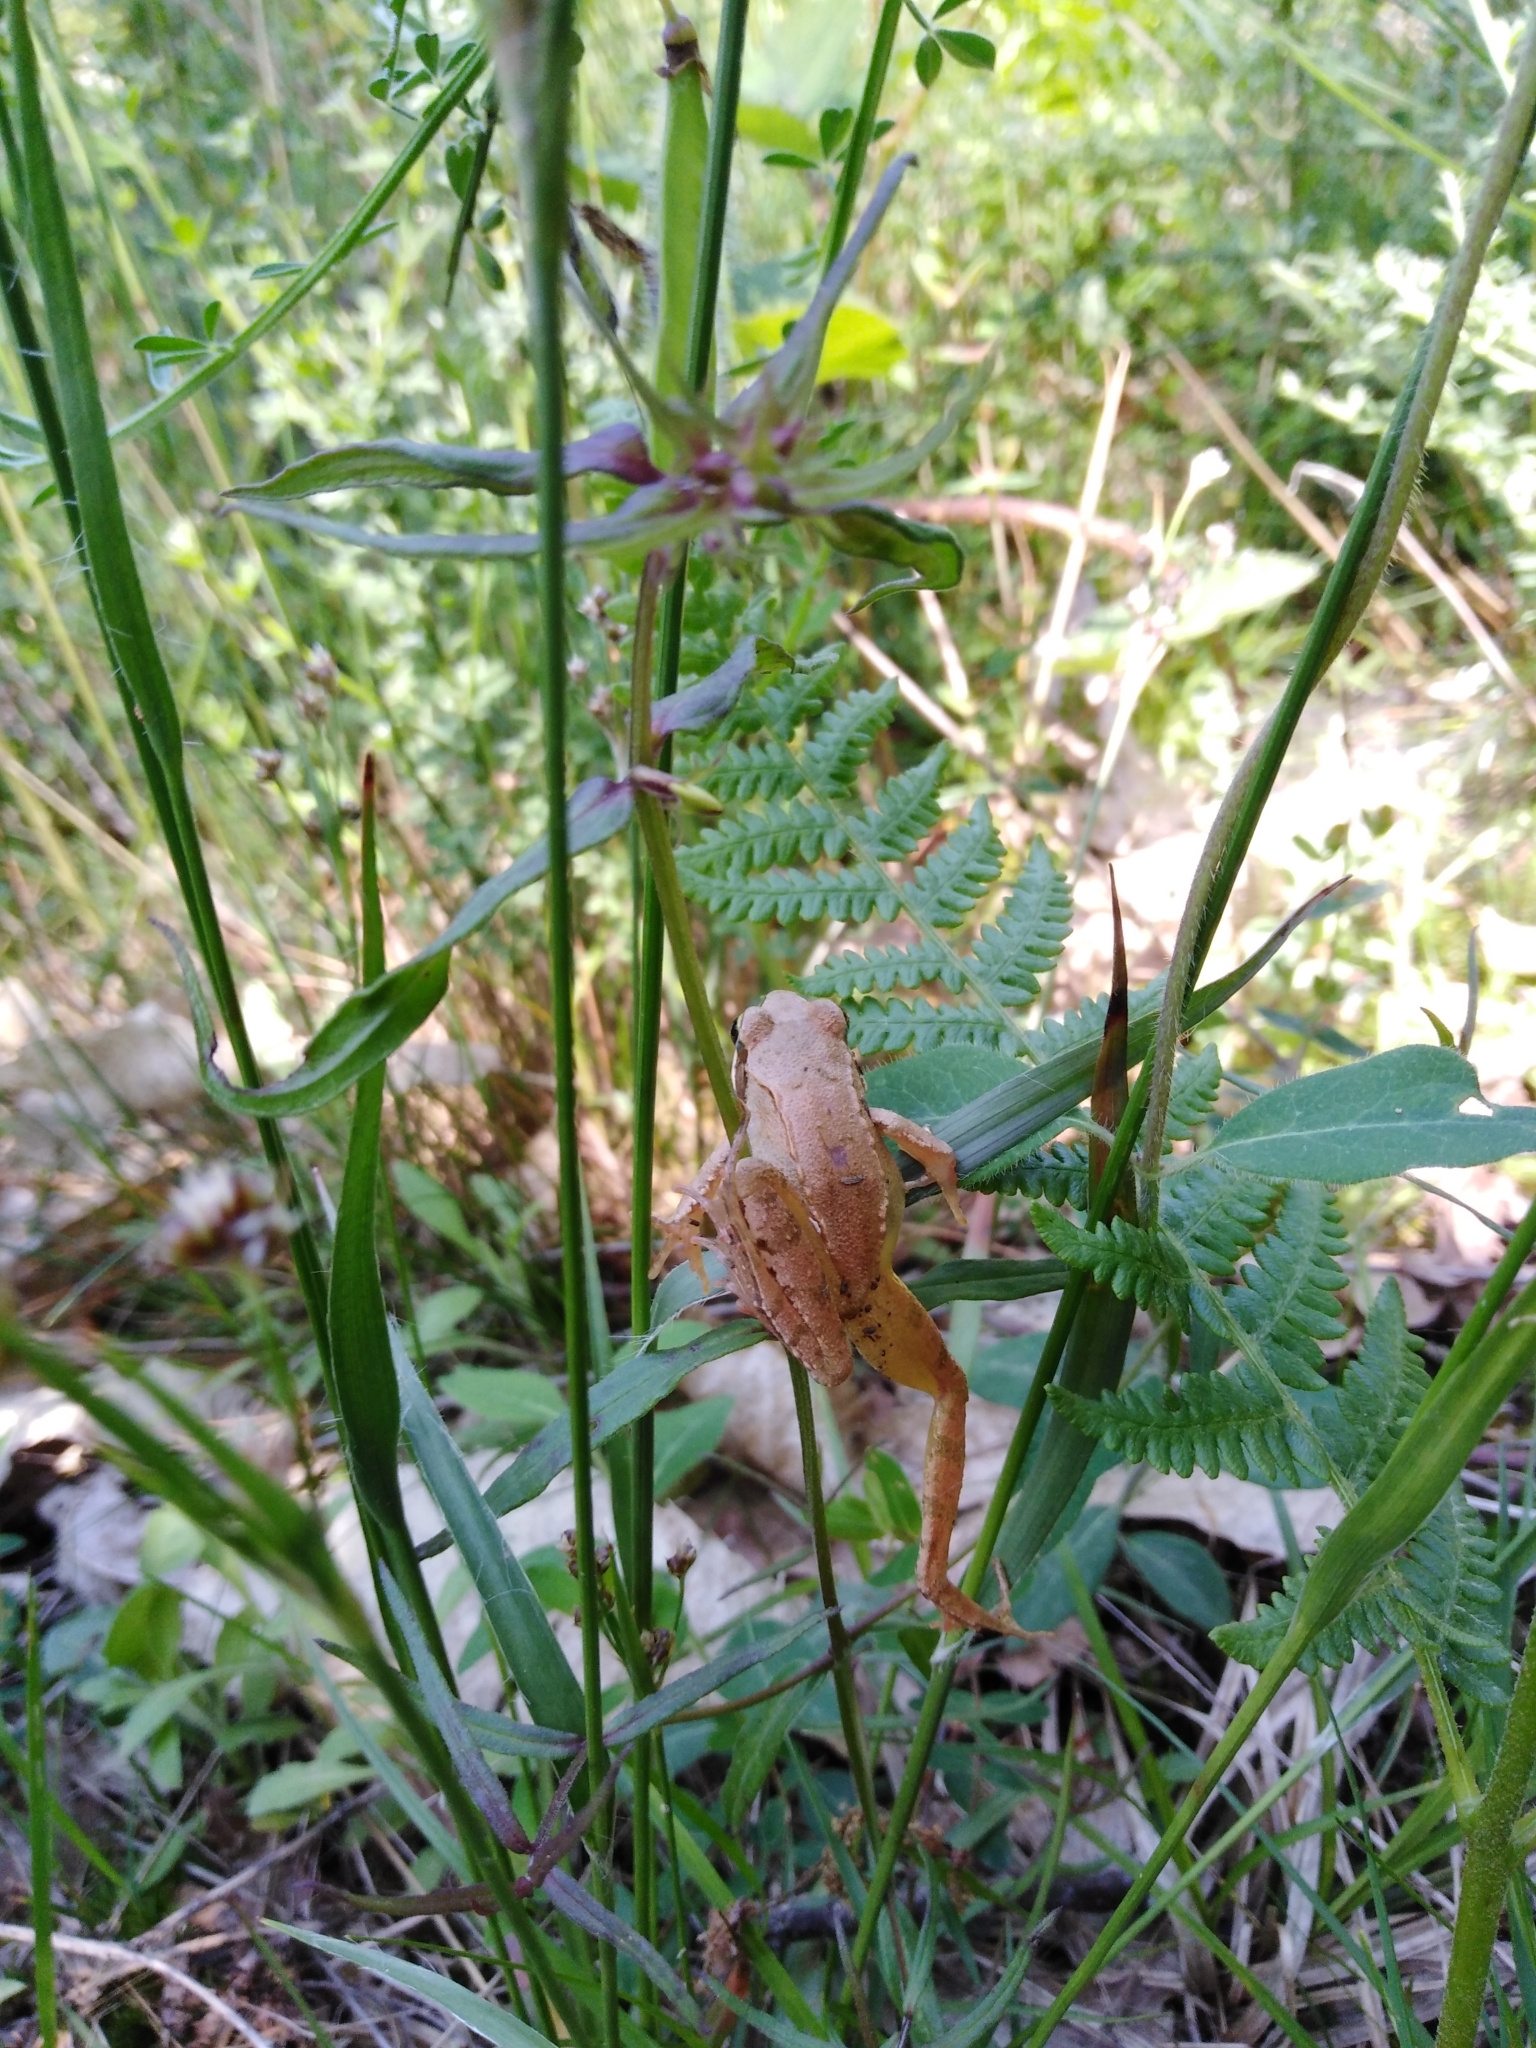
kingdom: Animalia
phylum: Chordata
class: Amphibia
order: Anura
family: Ranidae
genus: Rana
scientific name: Rana dalmatina
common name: Agile frog
